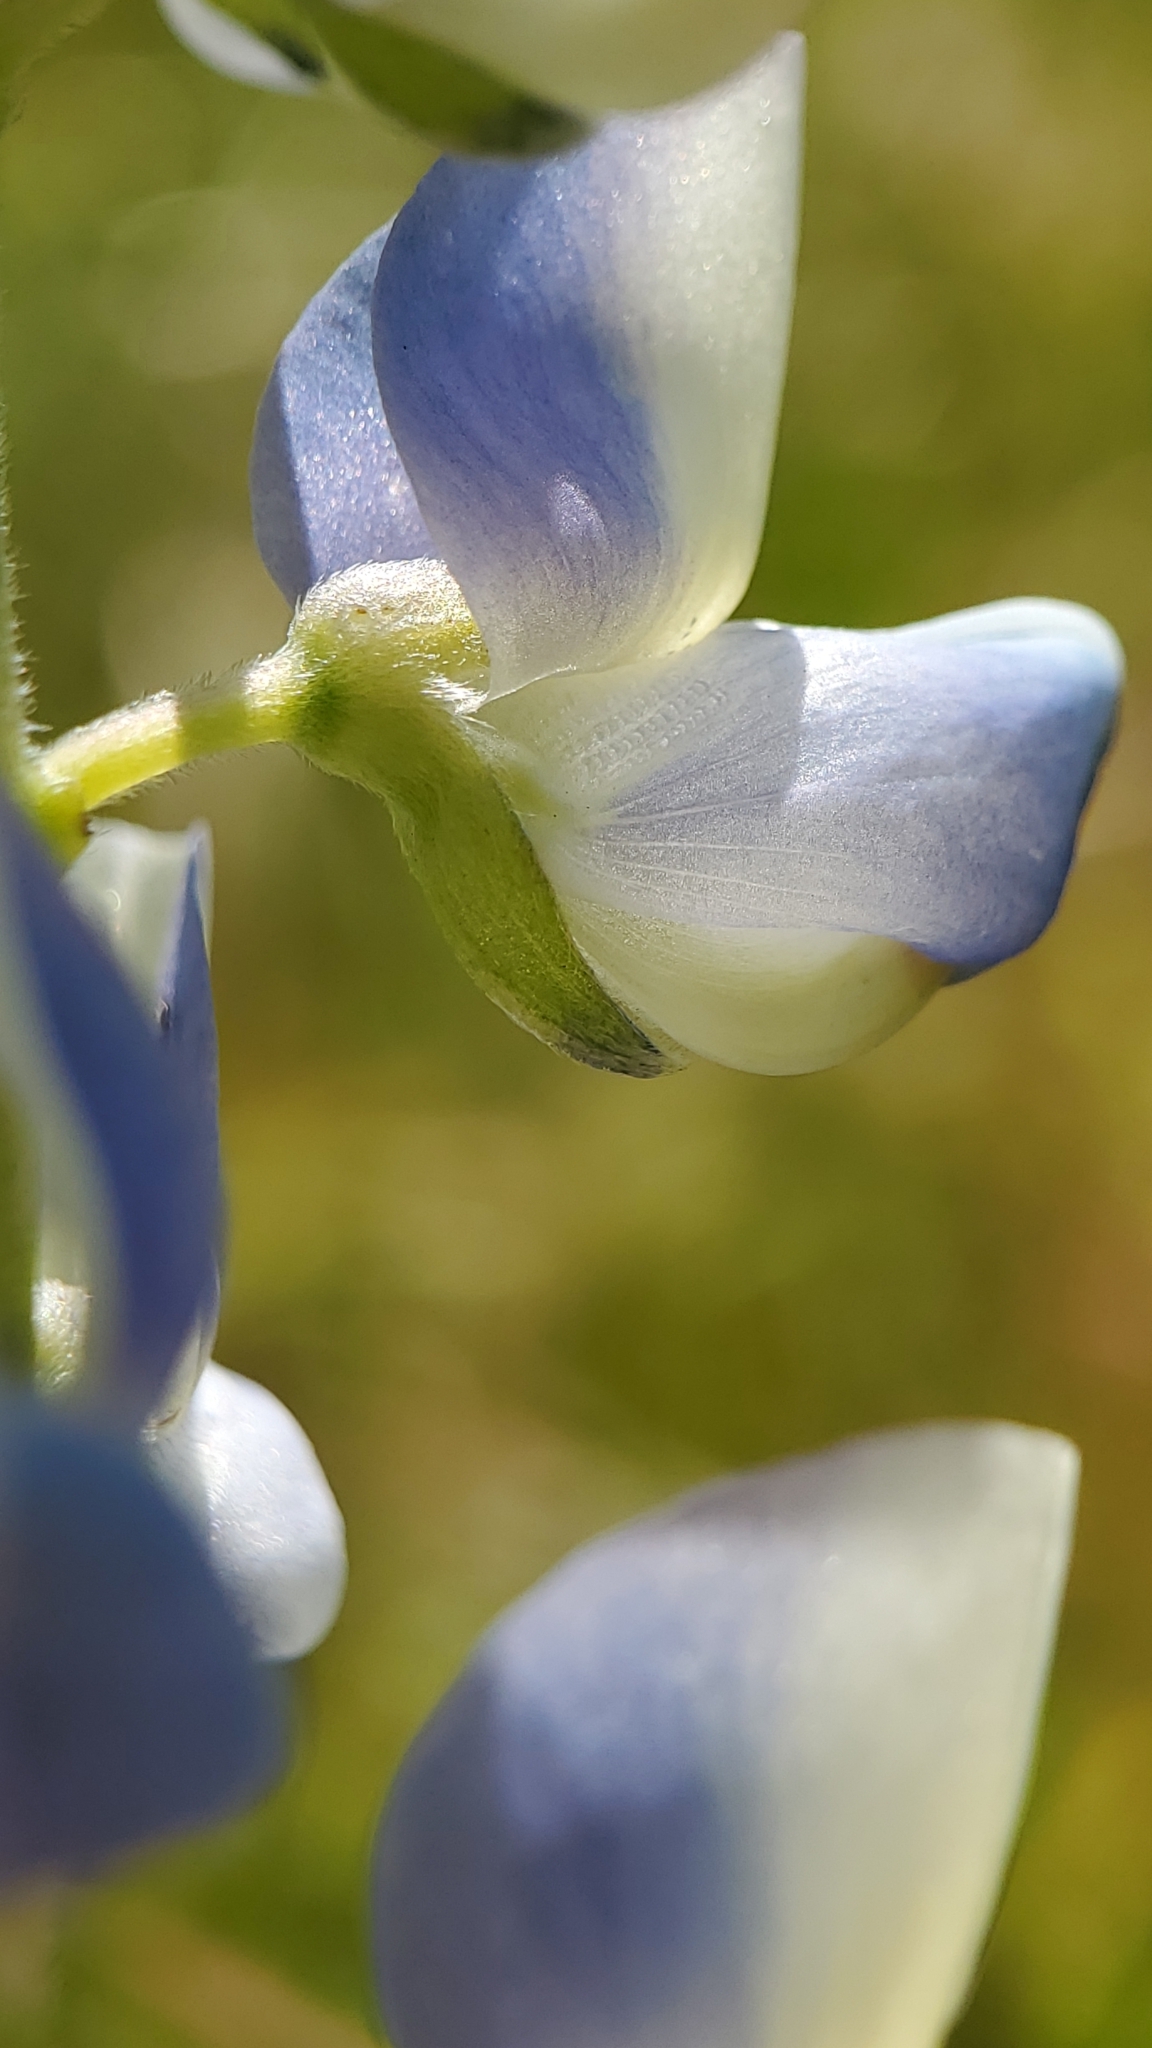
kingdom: Plantae
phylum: Tracheophyta
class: Magnoliopsida
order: Fabales
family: Fabaceae
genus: Lupinus
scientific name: Lupinus succulentus
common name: Arroyo lupine
